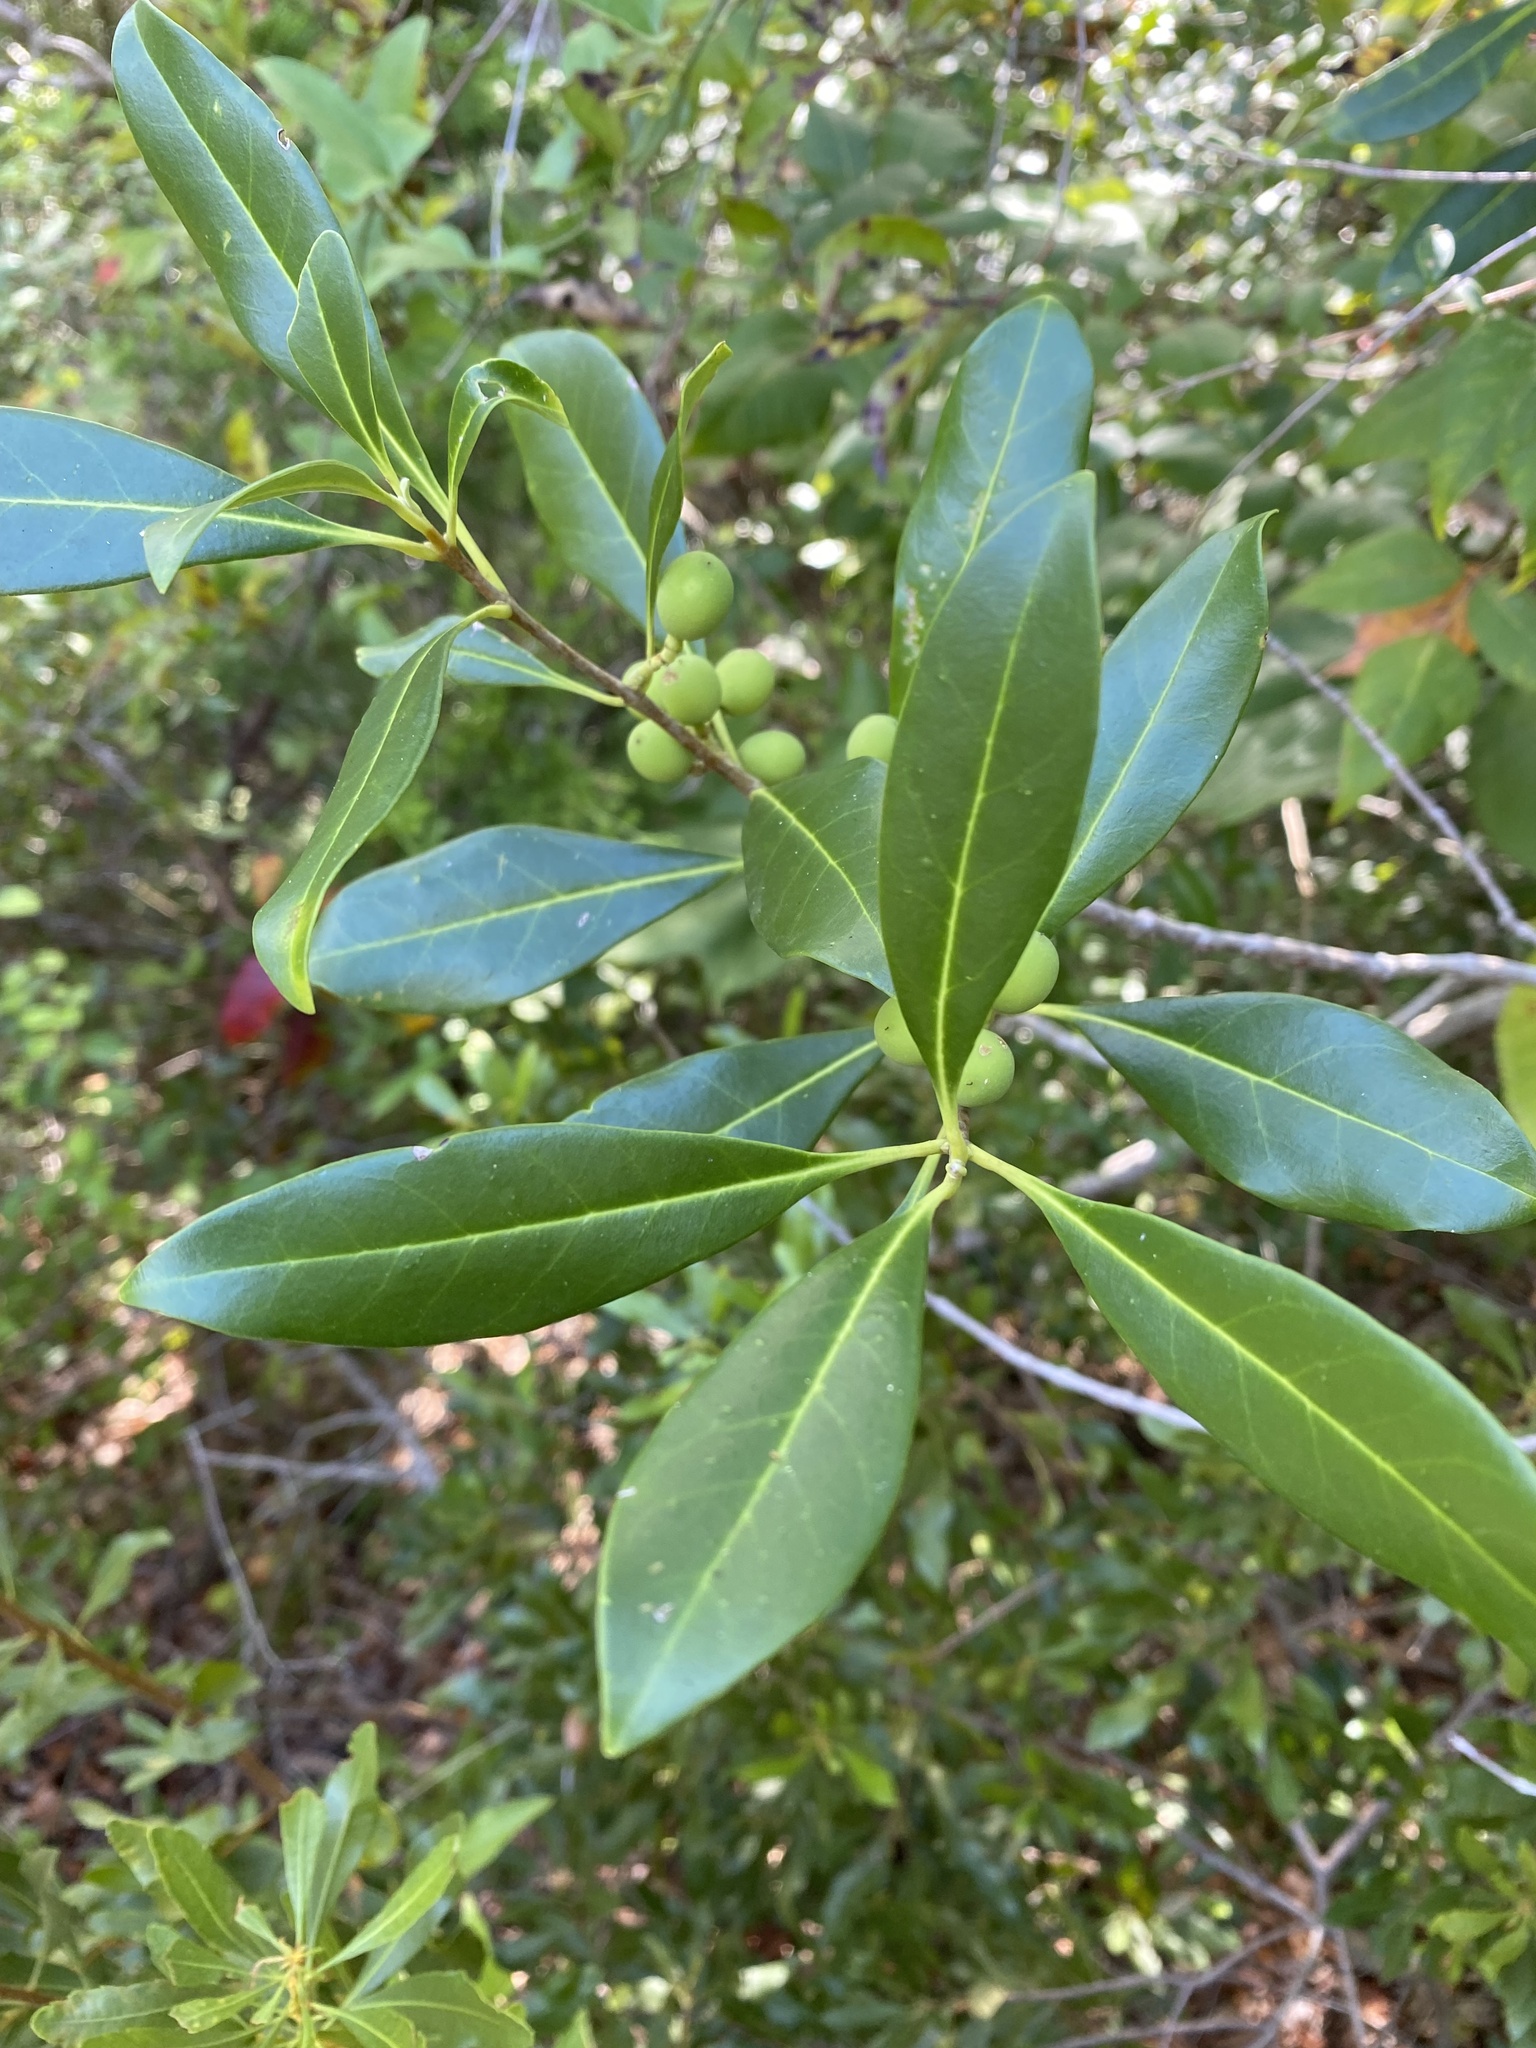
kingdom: Plantae
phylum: Tracheophyta
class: Magnoliopsida
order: Lamiales
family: Oleaceae
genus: Cartrema
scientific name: Cartrema americana
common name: Devilwood
